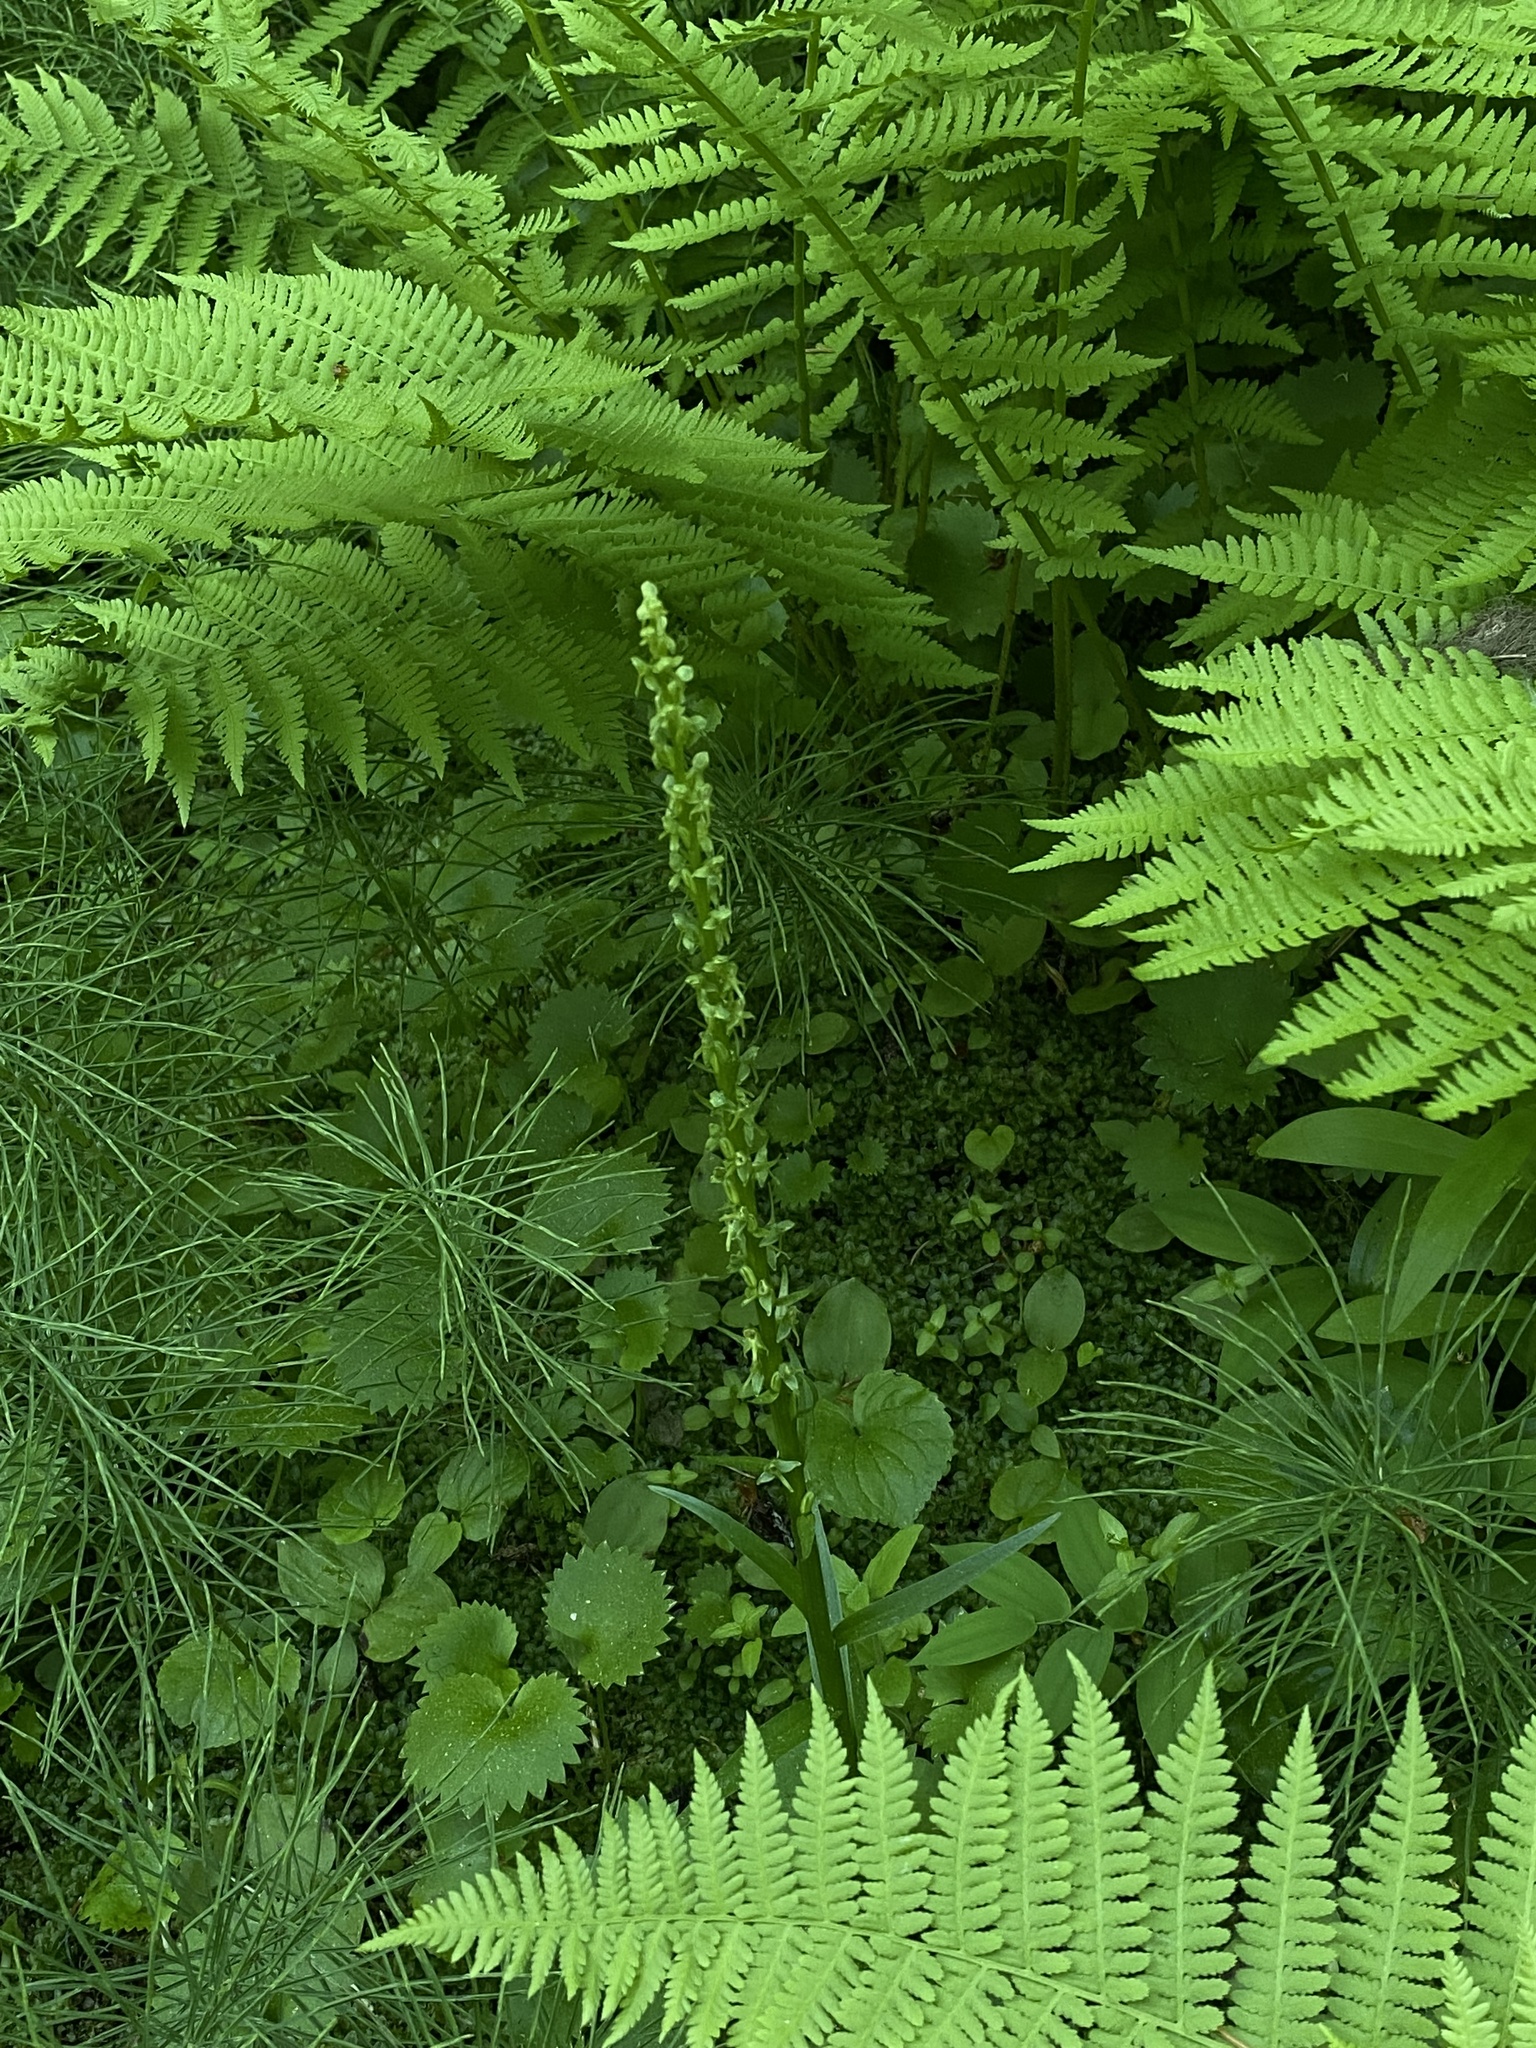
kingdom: Plantae
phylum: Tracheophyta
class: Liliopsida
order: Asparagales
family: Orchidaceae
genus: Platanthera
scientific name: Platanthera stricta
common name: Slender bog orchid
